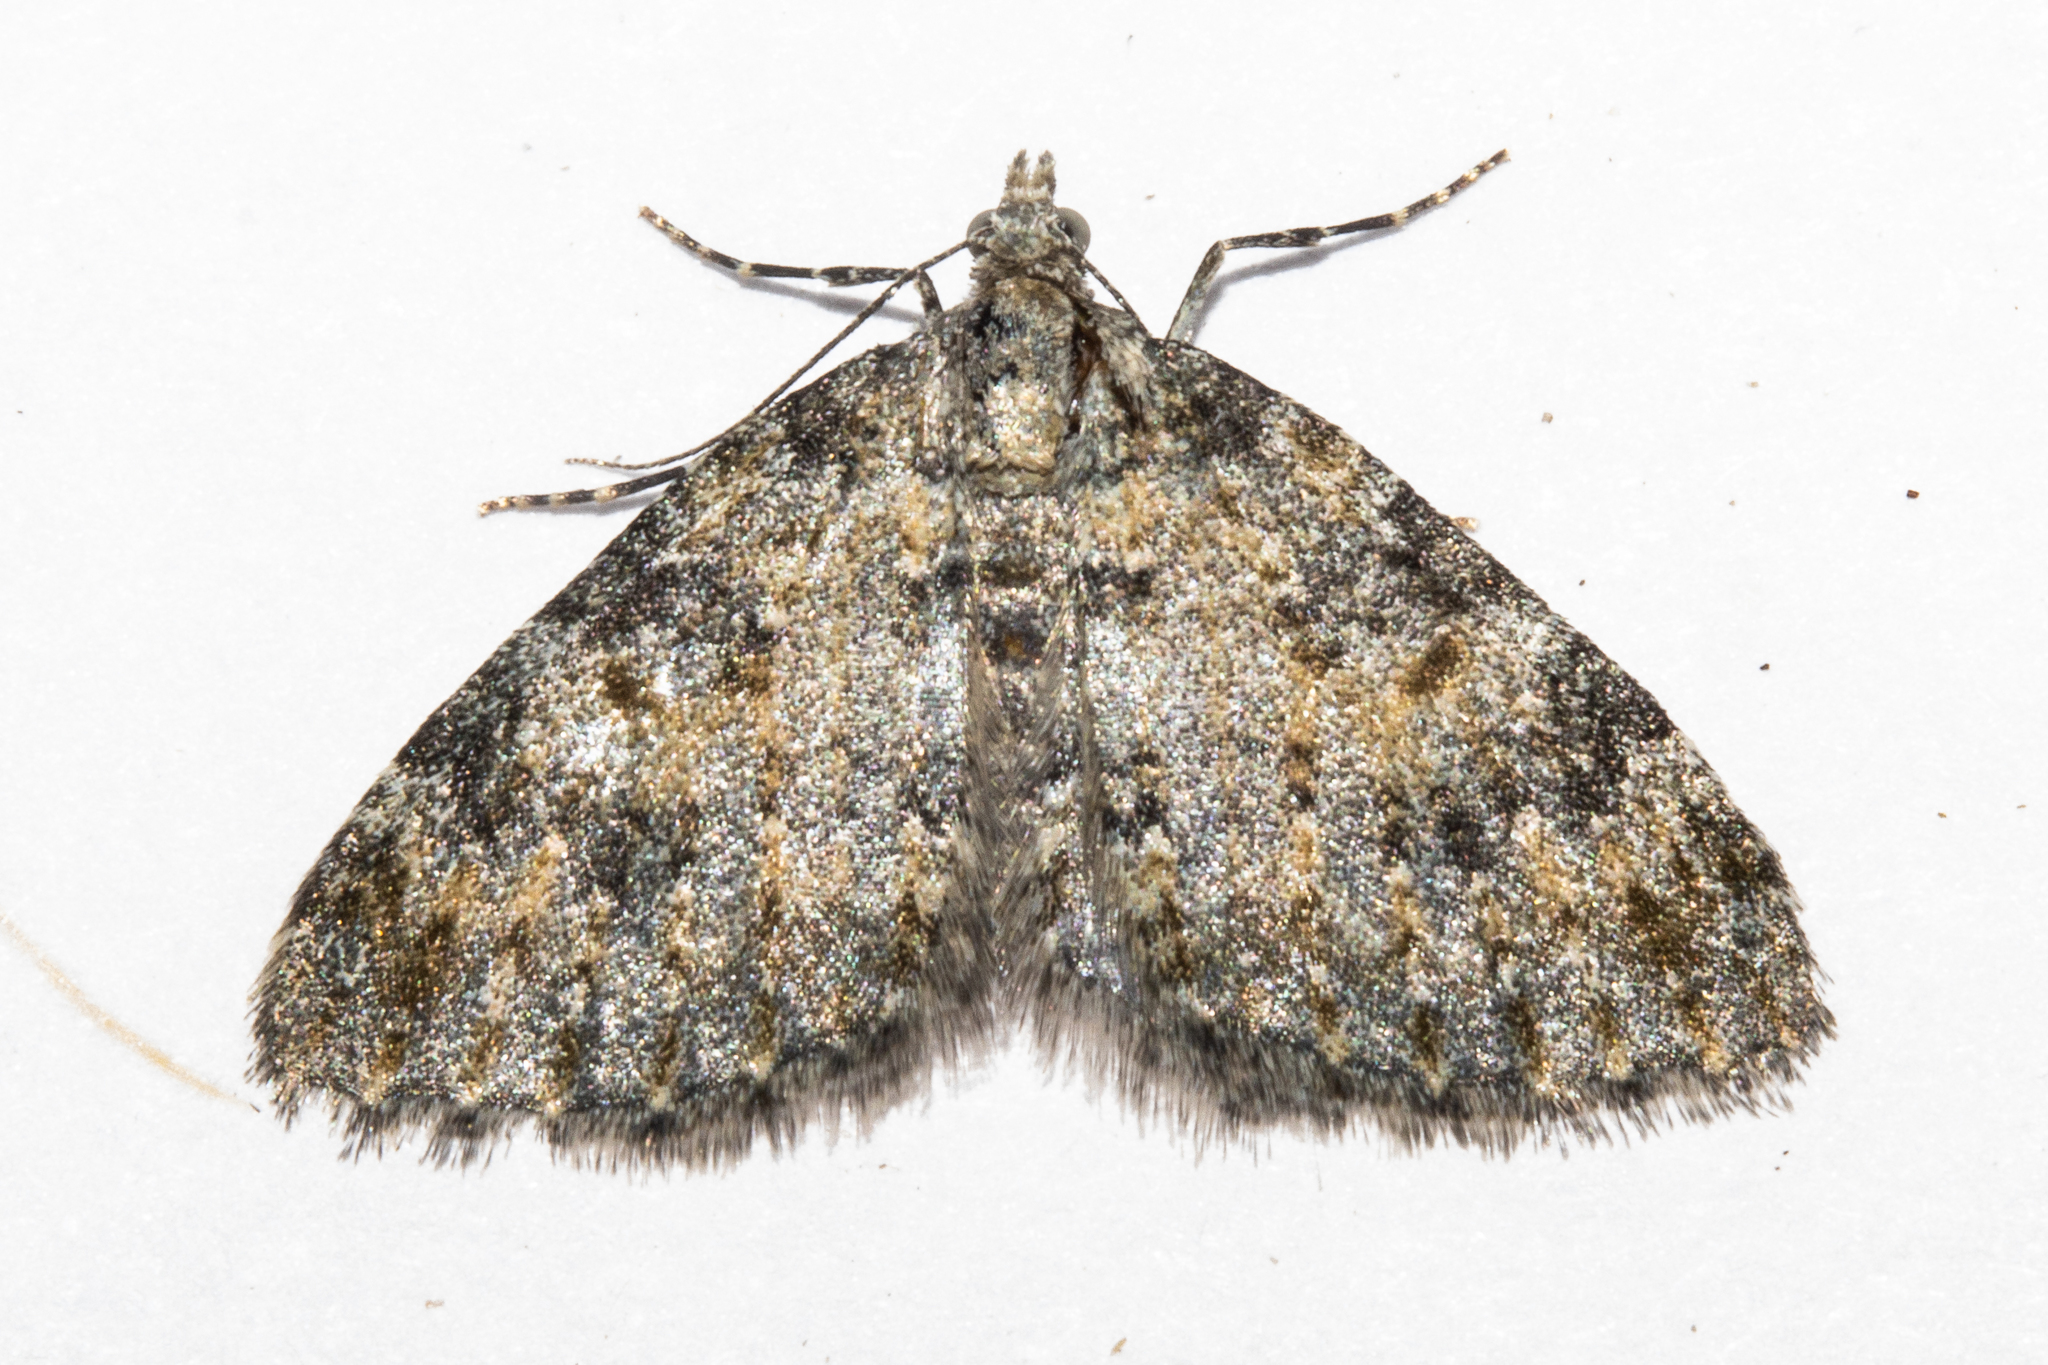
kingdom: Animalia
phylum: Arthropoda
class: Insecta
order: Lepidoptera
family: Geometridae
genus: Helastia
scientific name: Helastia plumbea
